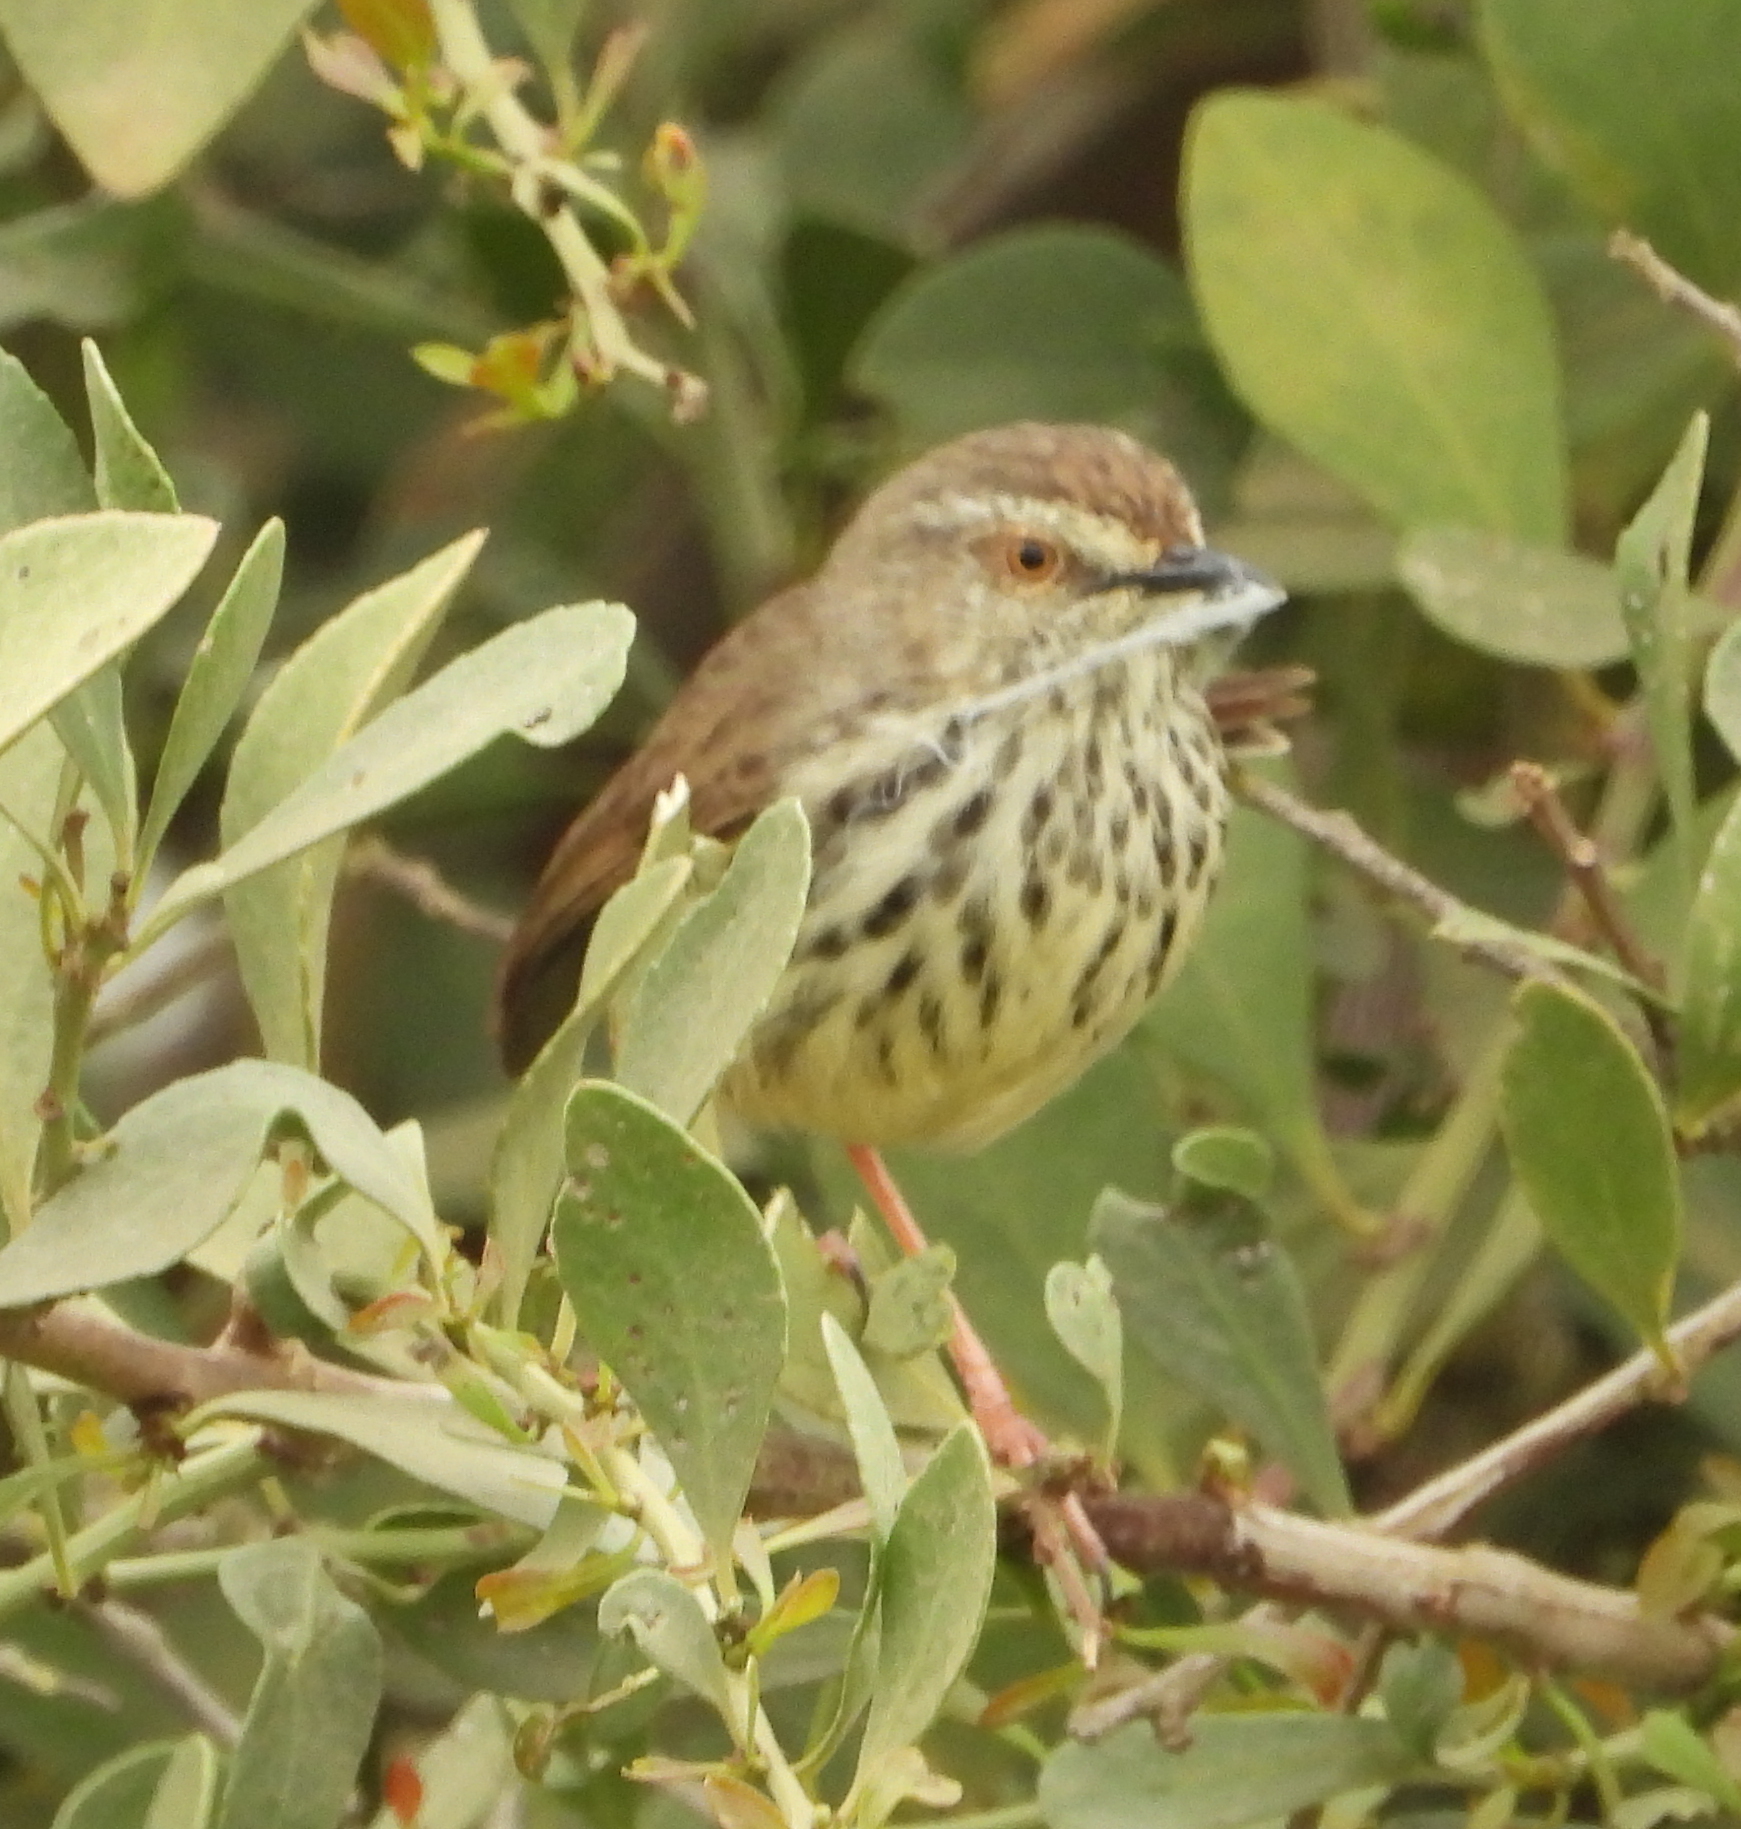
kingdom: Animalia
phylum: Chordata
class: Aves
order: Passeriformes
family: Cisticolidae
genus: Prinia
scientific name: Prinia maculosa
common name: Karoo prinia
